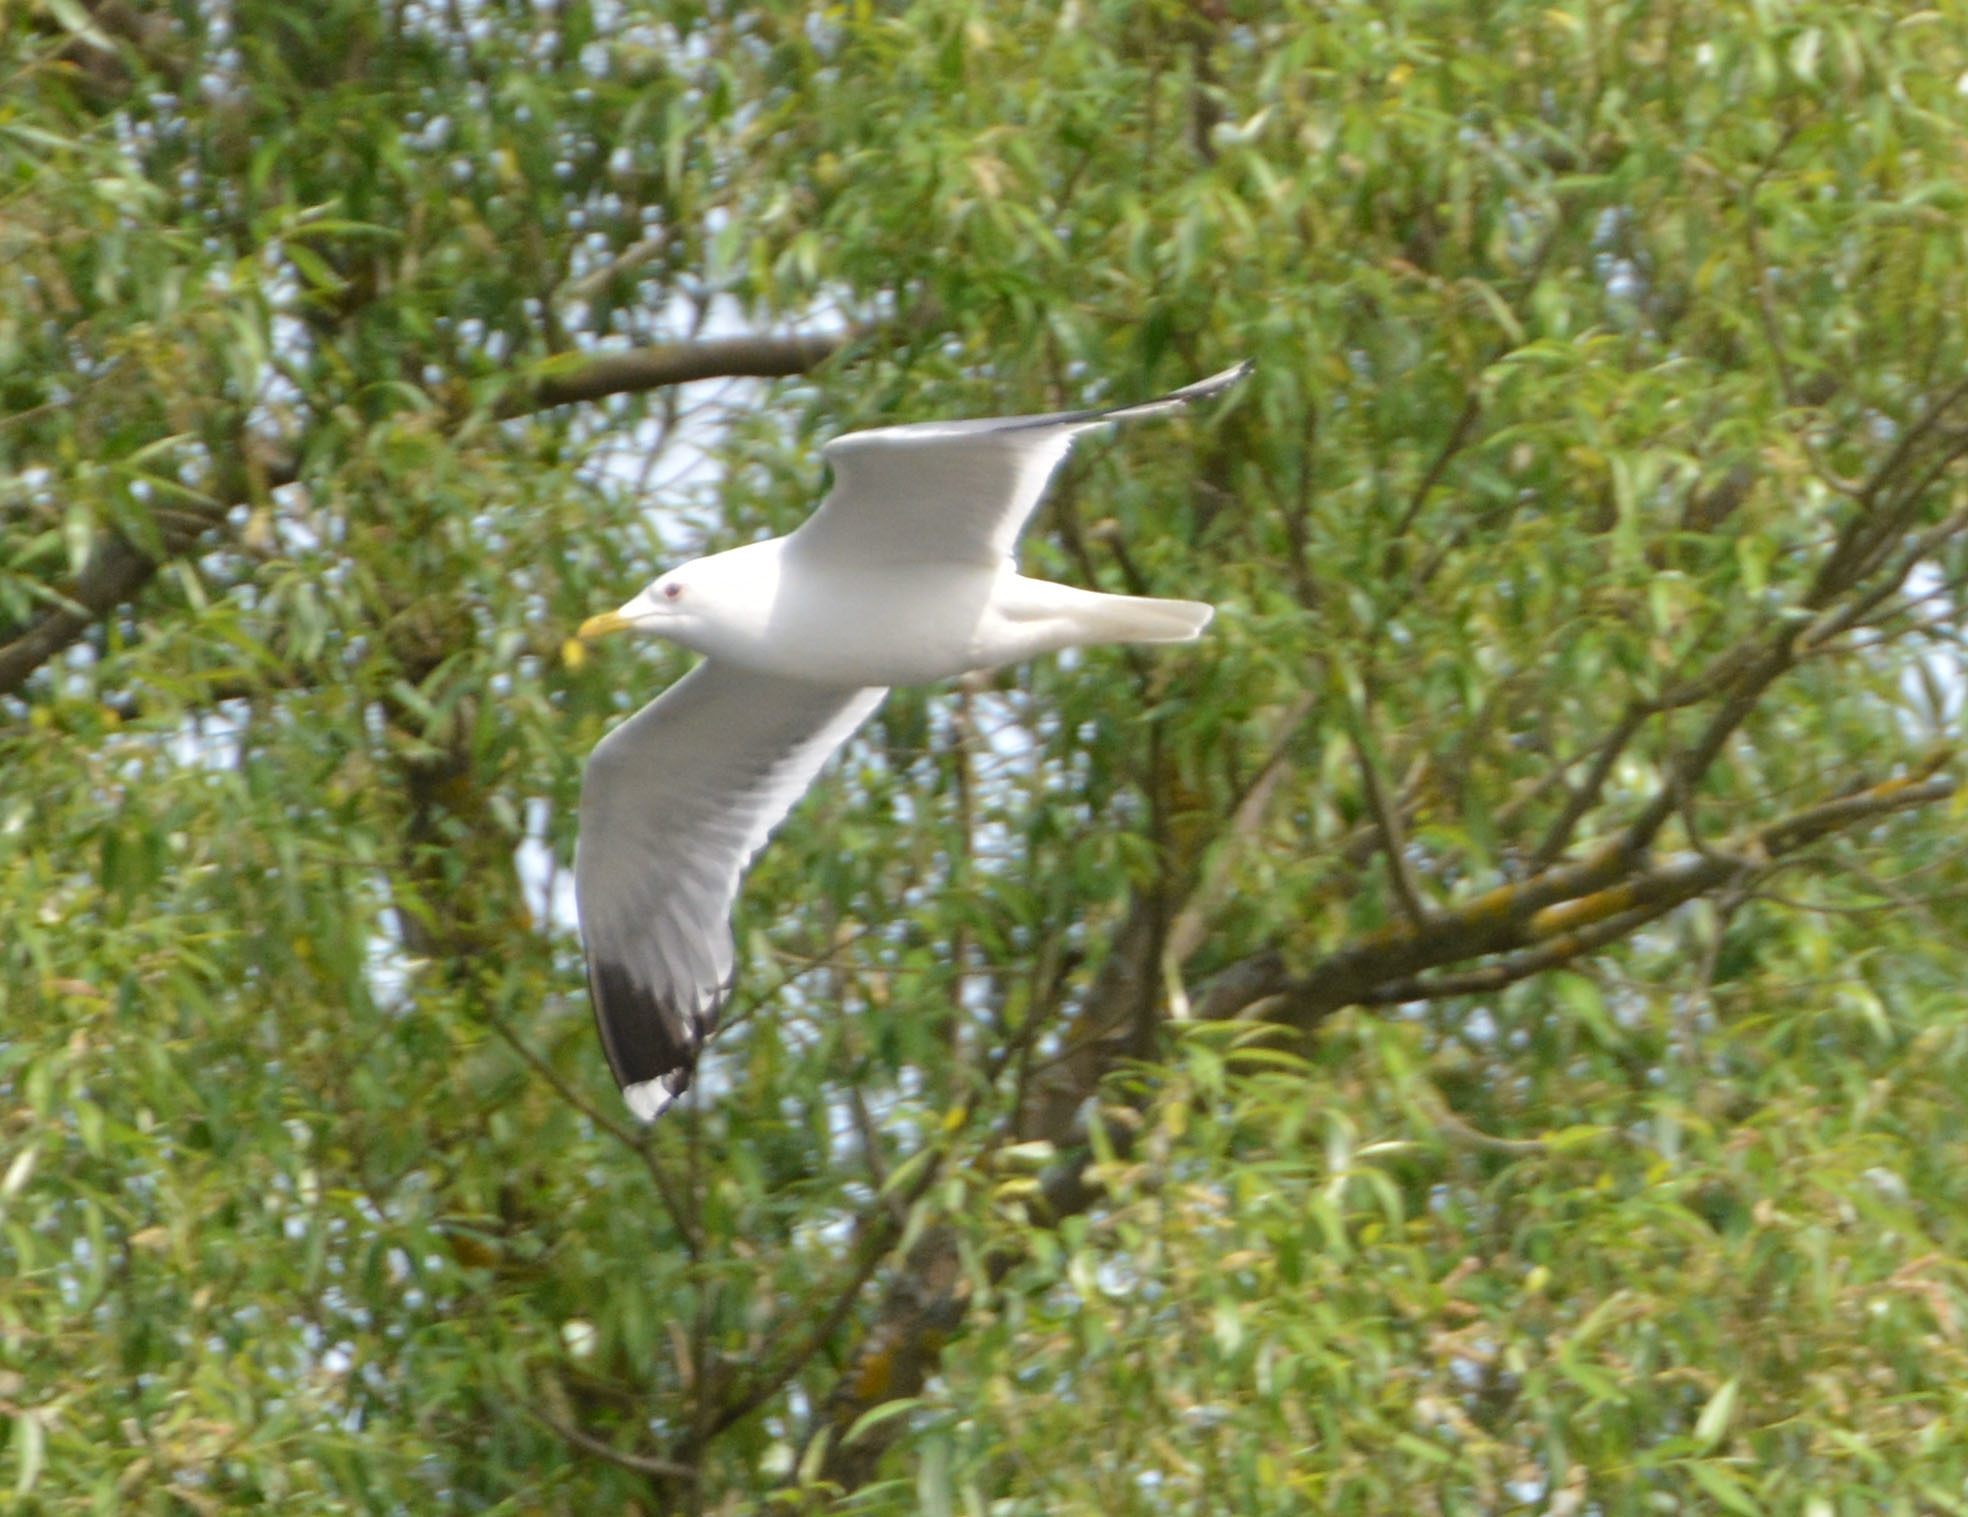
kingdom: Animalia
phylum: Chordata
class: Aves
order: Charadriiformes
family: Laridae
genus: Larus
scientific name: Larus canus
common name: Mew gull
